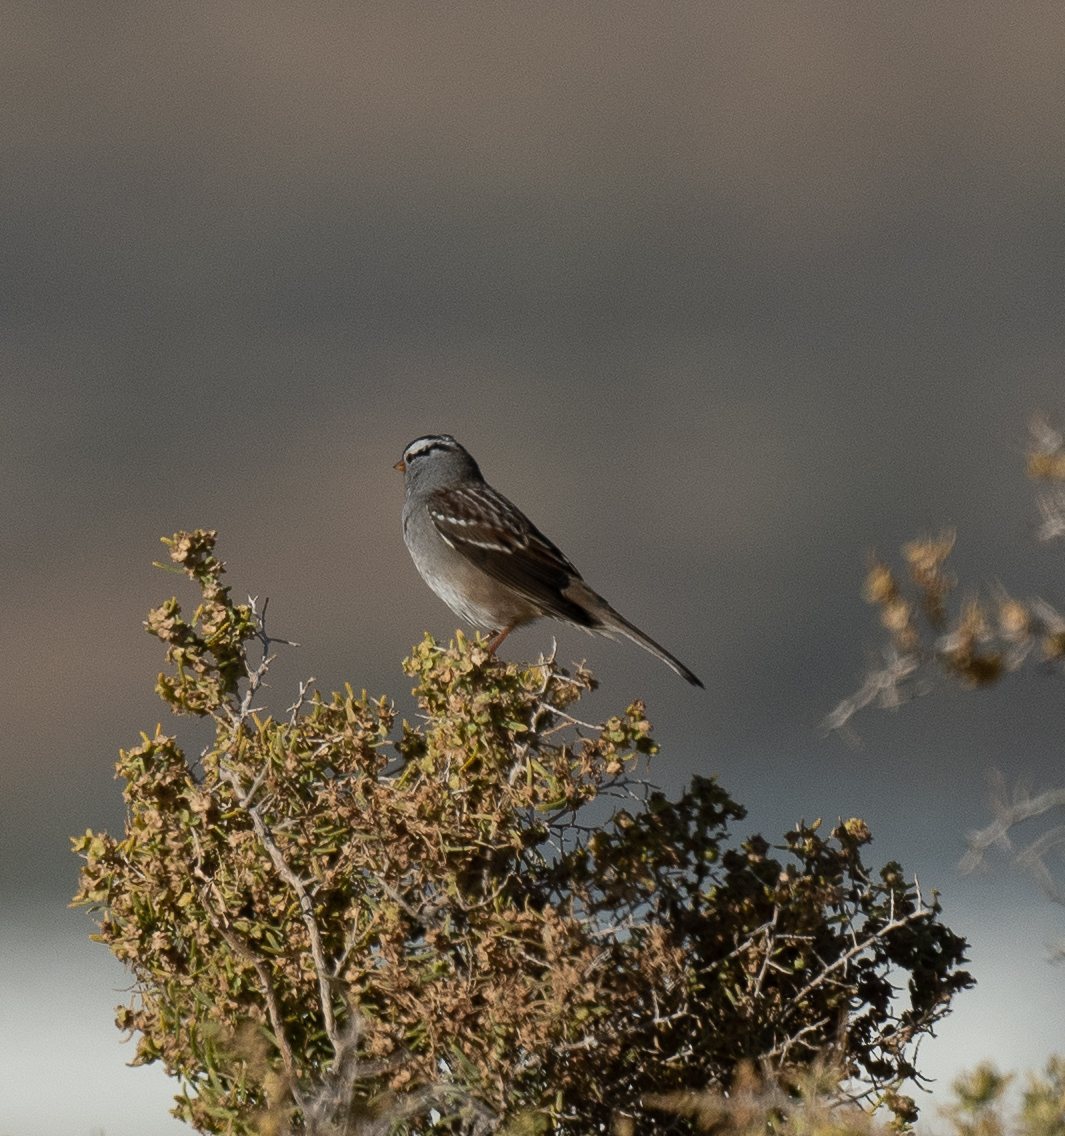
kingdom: Animalia
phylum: Chordata
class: Aves
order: Passeriformes
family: Passerellidae
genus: Zonotrichia
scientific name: Zonotrichia leucophrys
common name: White-crowned sparrow
